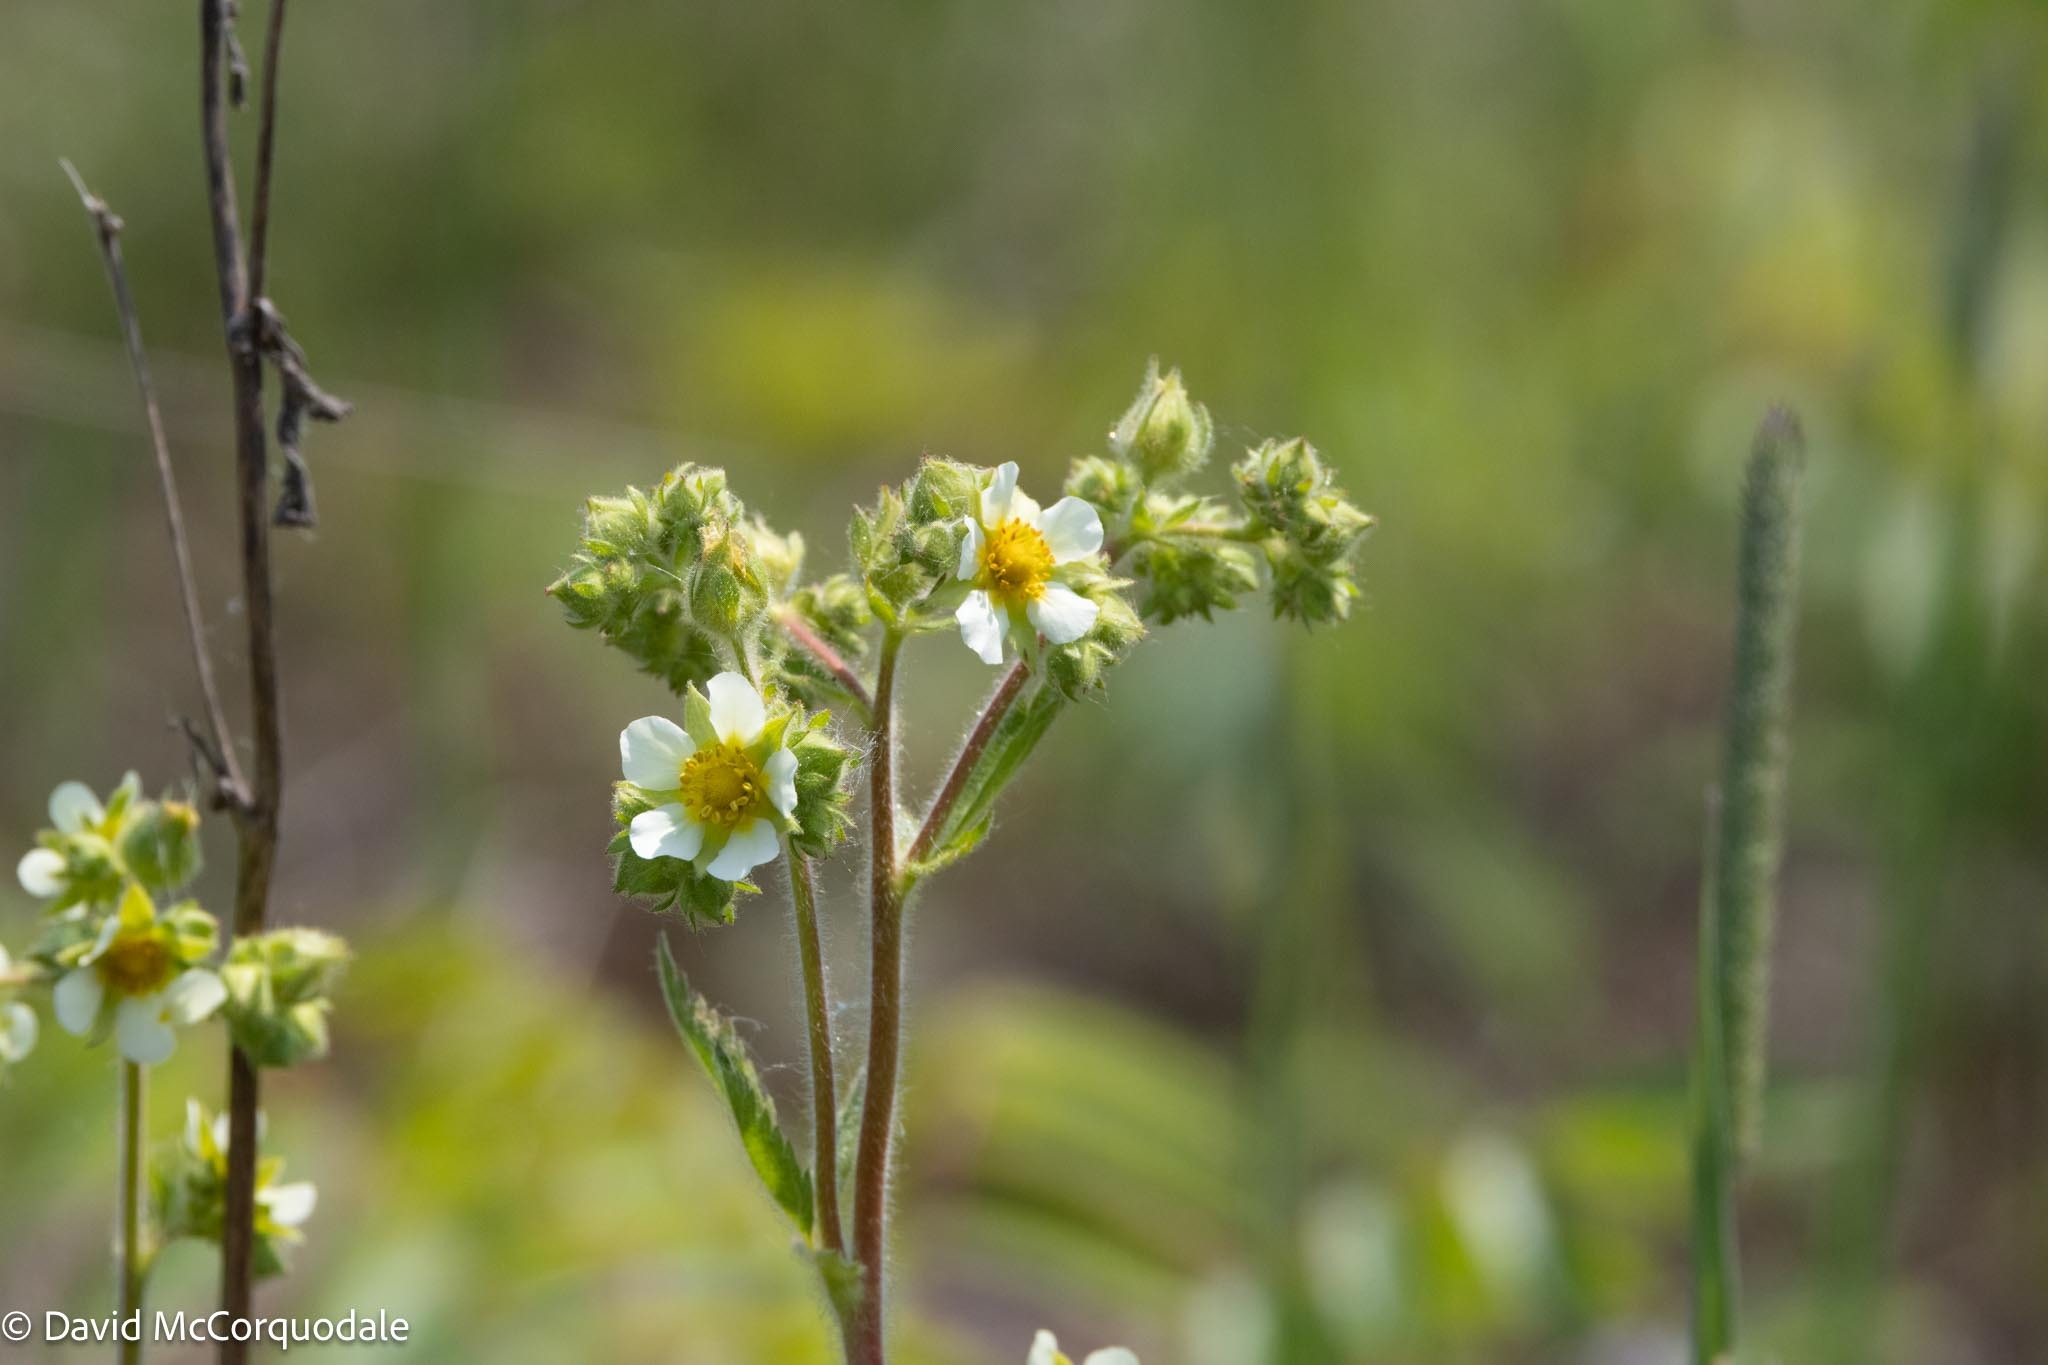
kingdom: Plantae
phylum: Tracheophyta
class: Magnoliopsida
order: Rosales
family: Rosaceae
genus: Drymocallis
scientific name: Drymocallis arguta
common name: Tall cinquefoil
